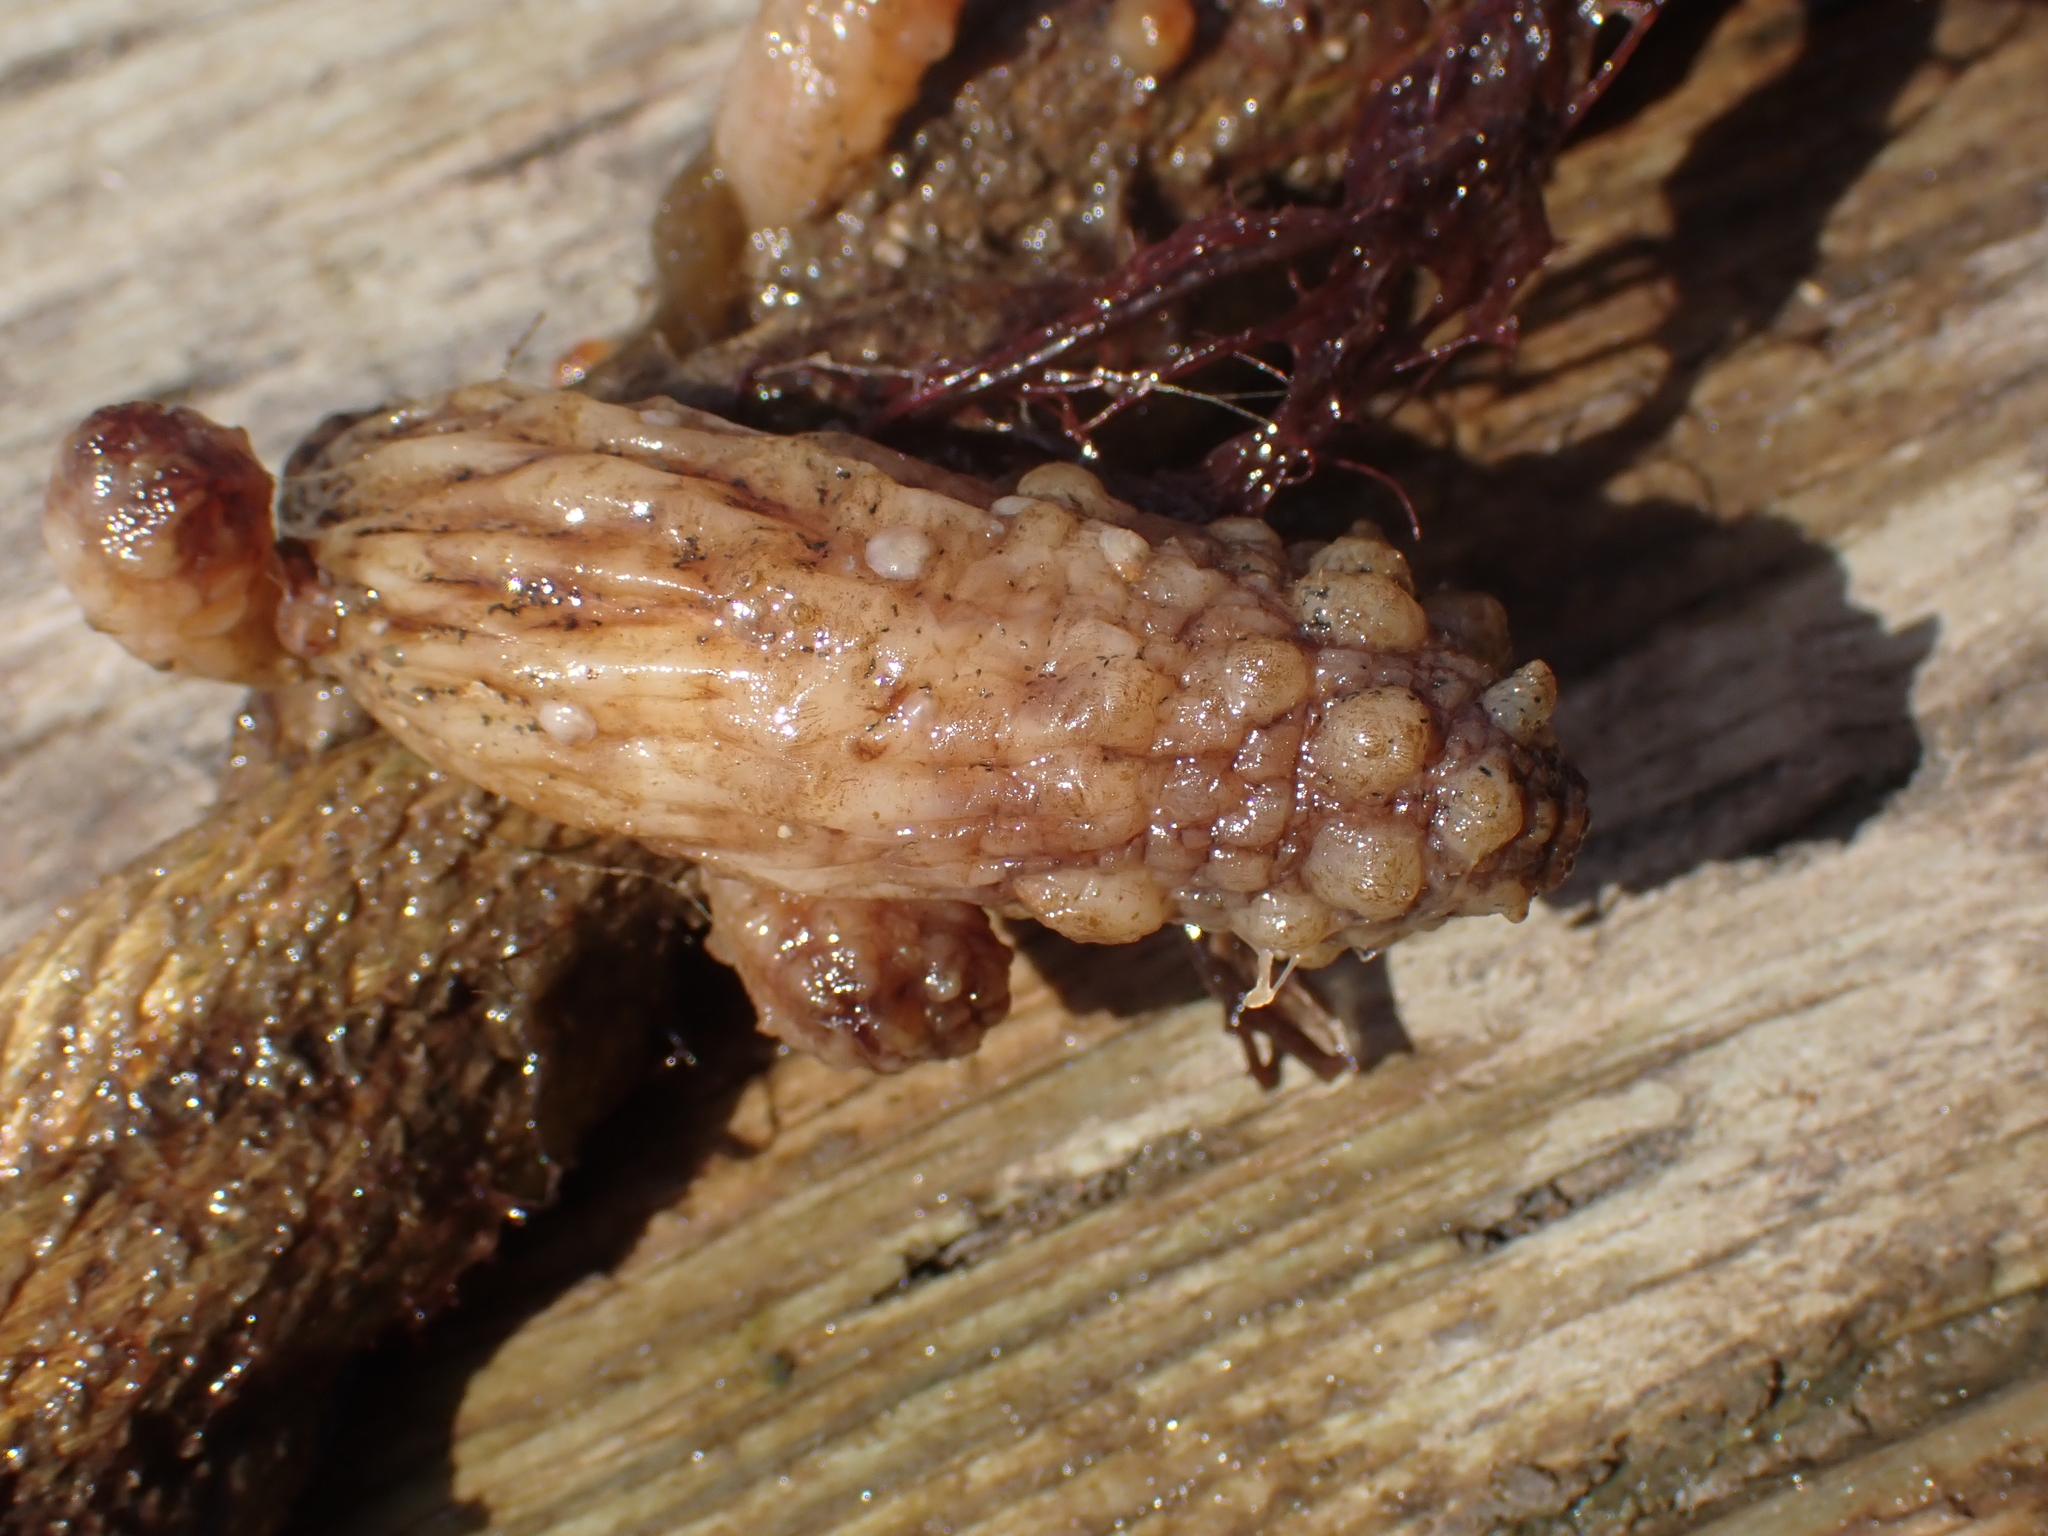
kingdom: Animalia
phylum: Chordata
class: Ascidiacea
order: Stolidobranchia
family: Styelidae
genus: Styela
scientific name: Styela clava
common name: Leathery sea squirt
